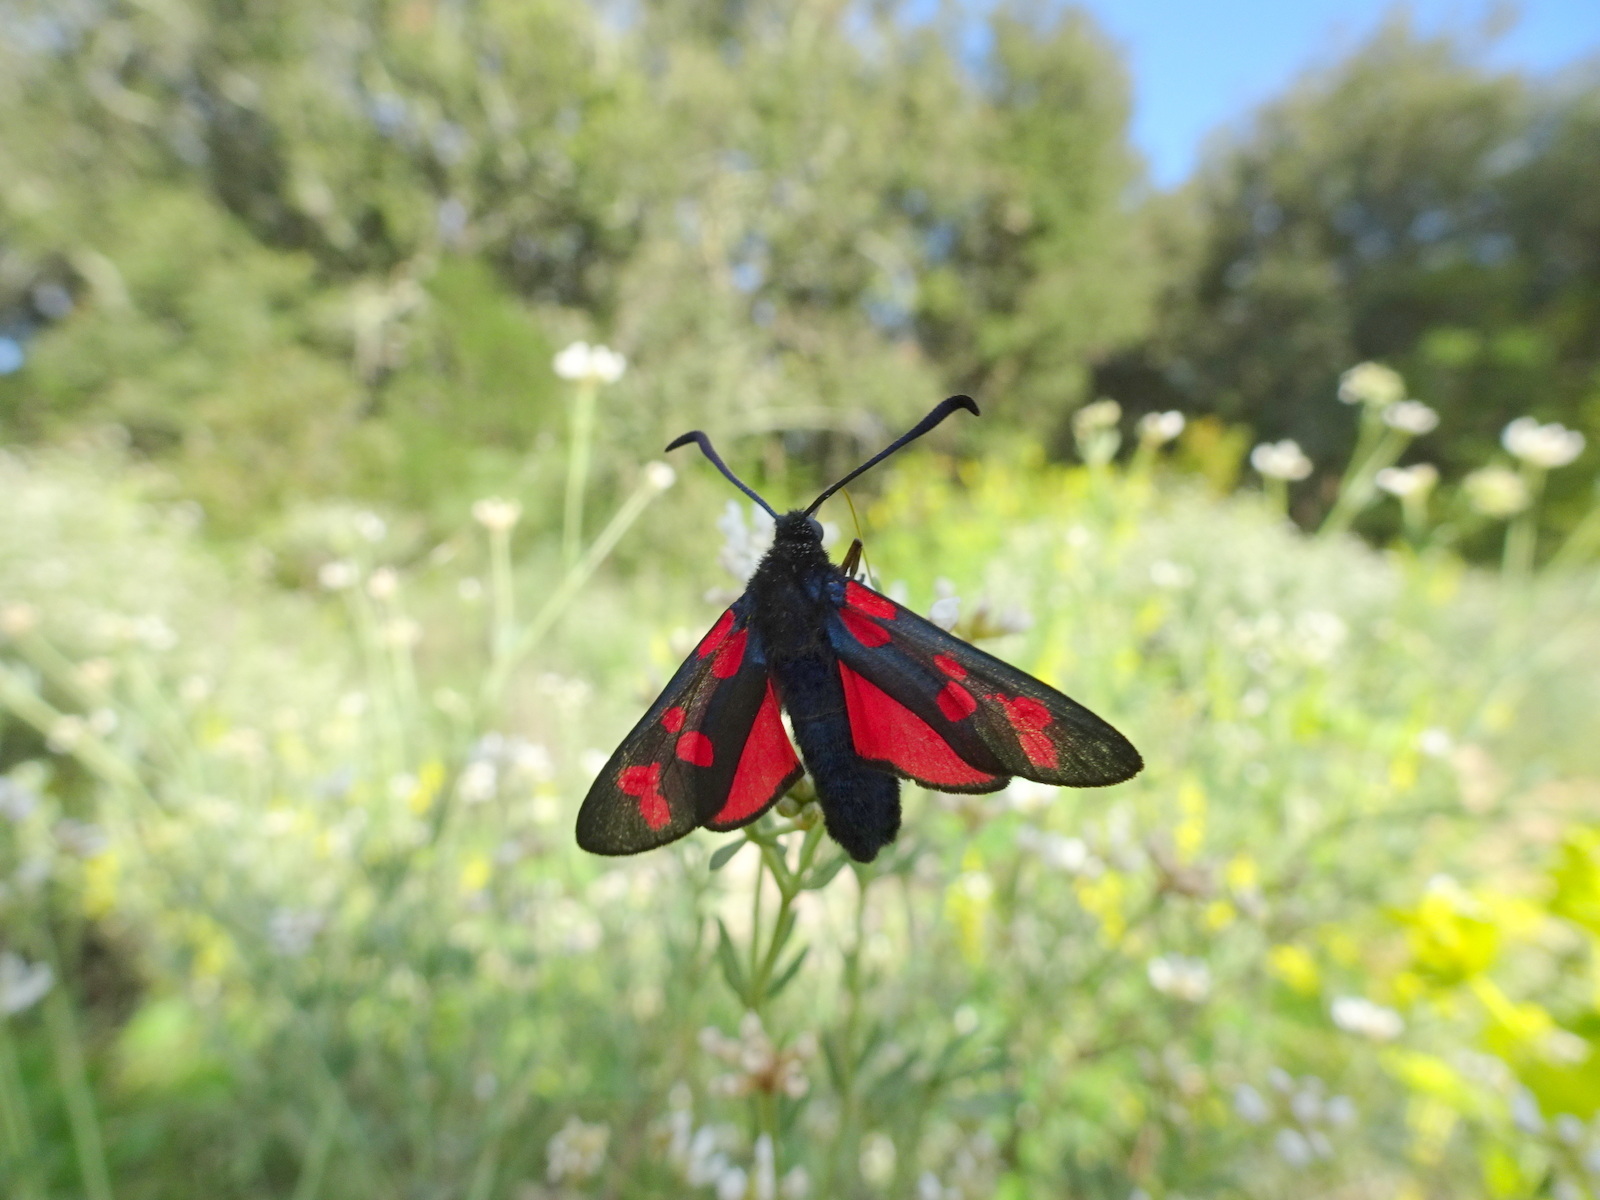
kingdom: Animalia
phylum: Arthropoda
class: Insecta
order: Lepidoptera
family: Zygaenidae
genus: Zygaena
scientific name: Zygaena filipendulae
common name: Six-spot burnet
